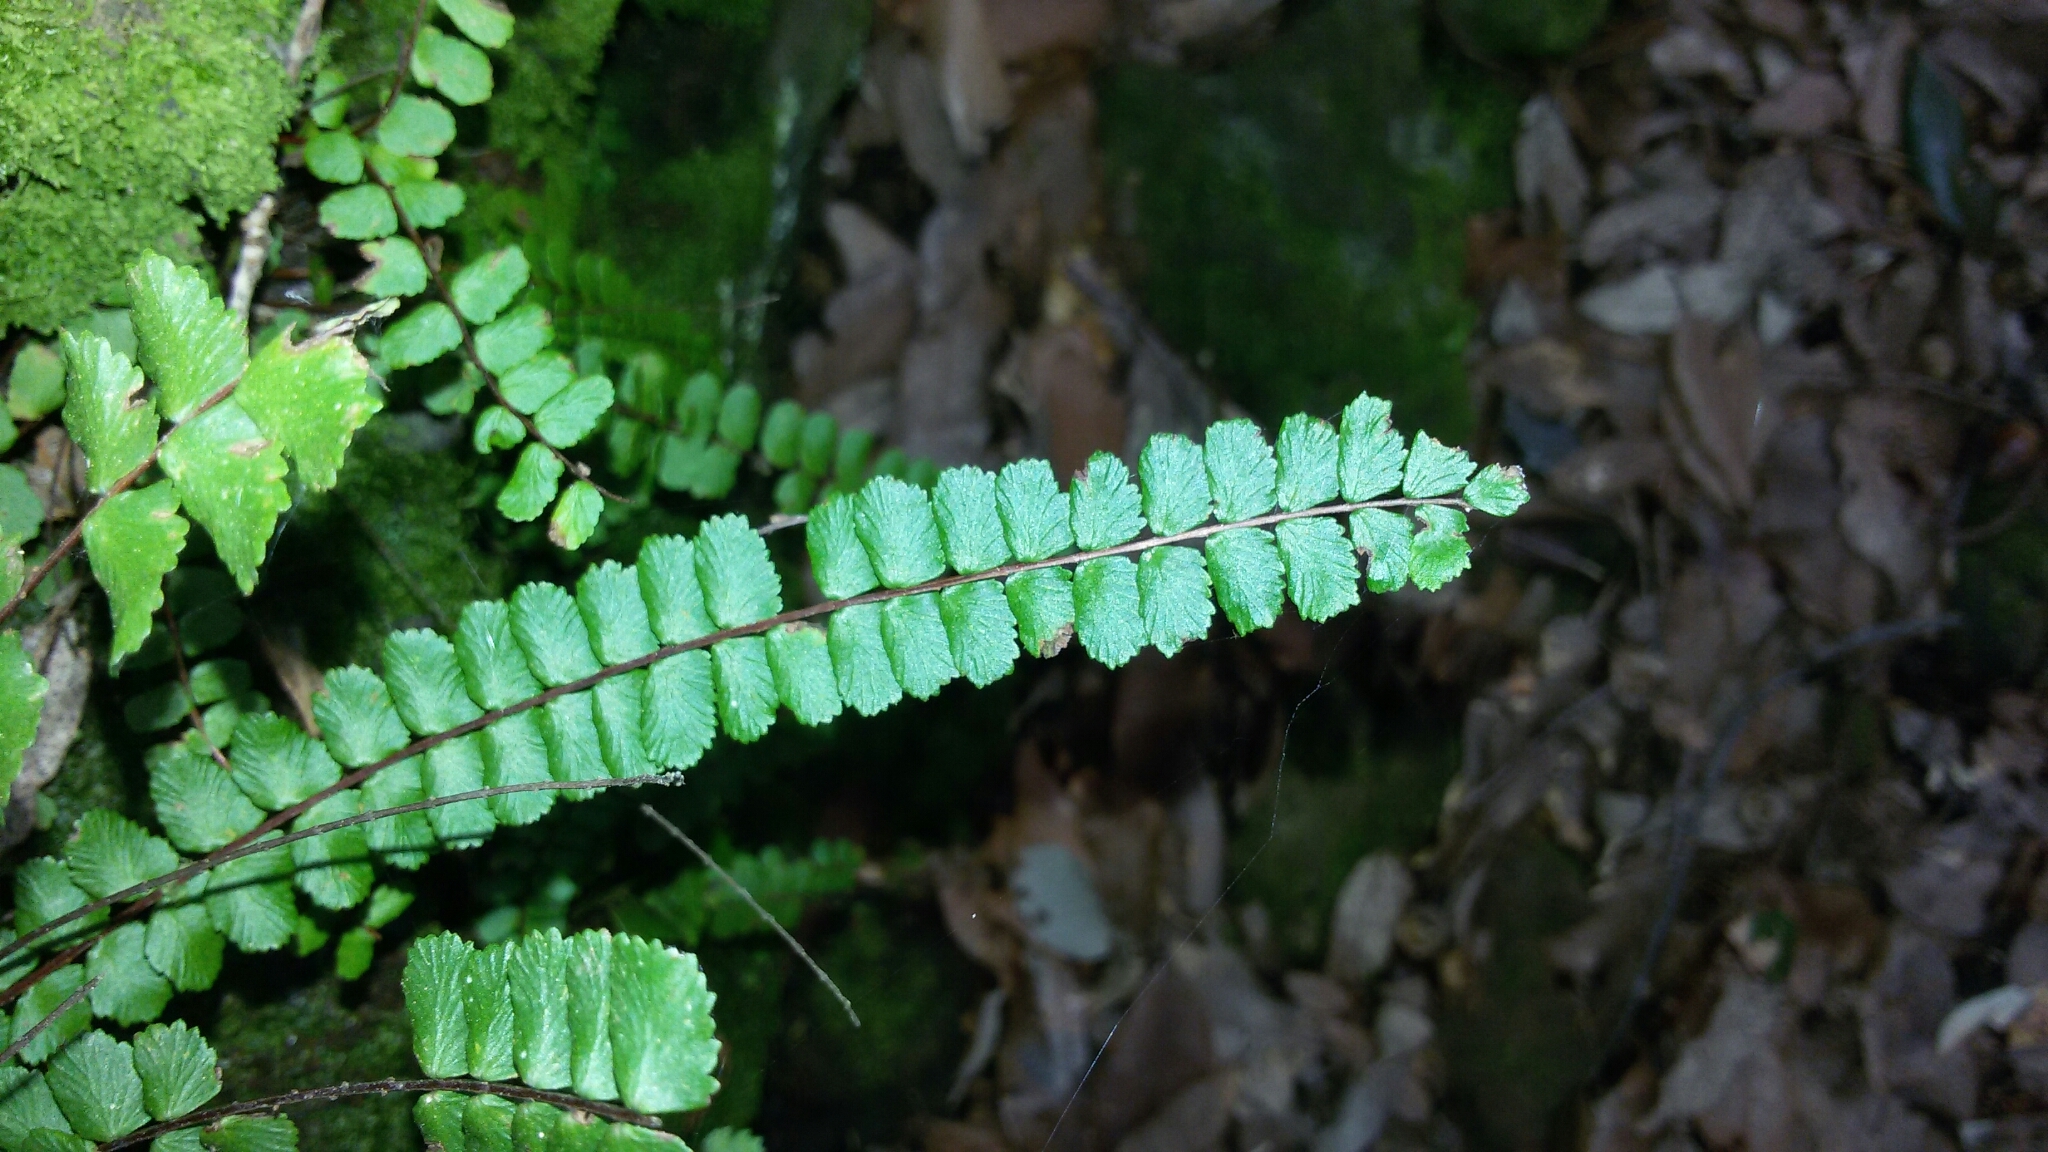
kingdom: Plantae
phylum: Tracheophyta
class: Polypodiopsida
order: Polypodiales
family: Aspleniaceae
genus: Asplenium
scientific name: Asplenium trichomanes
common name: Maidenhair spleenwort
